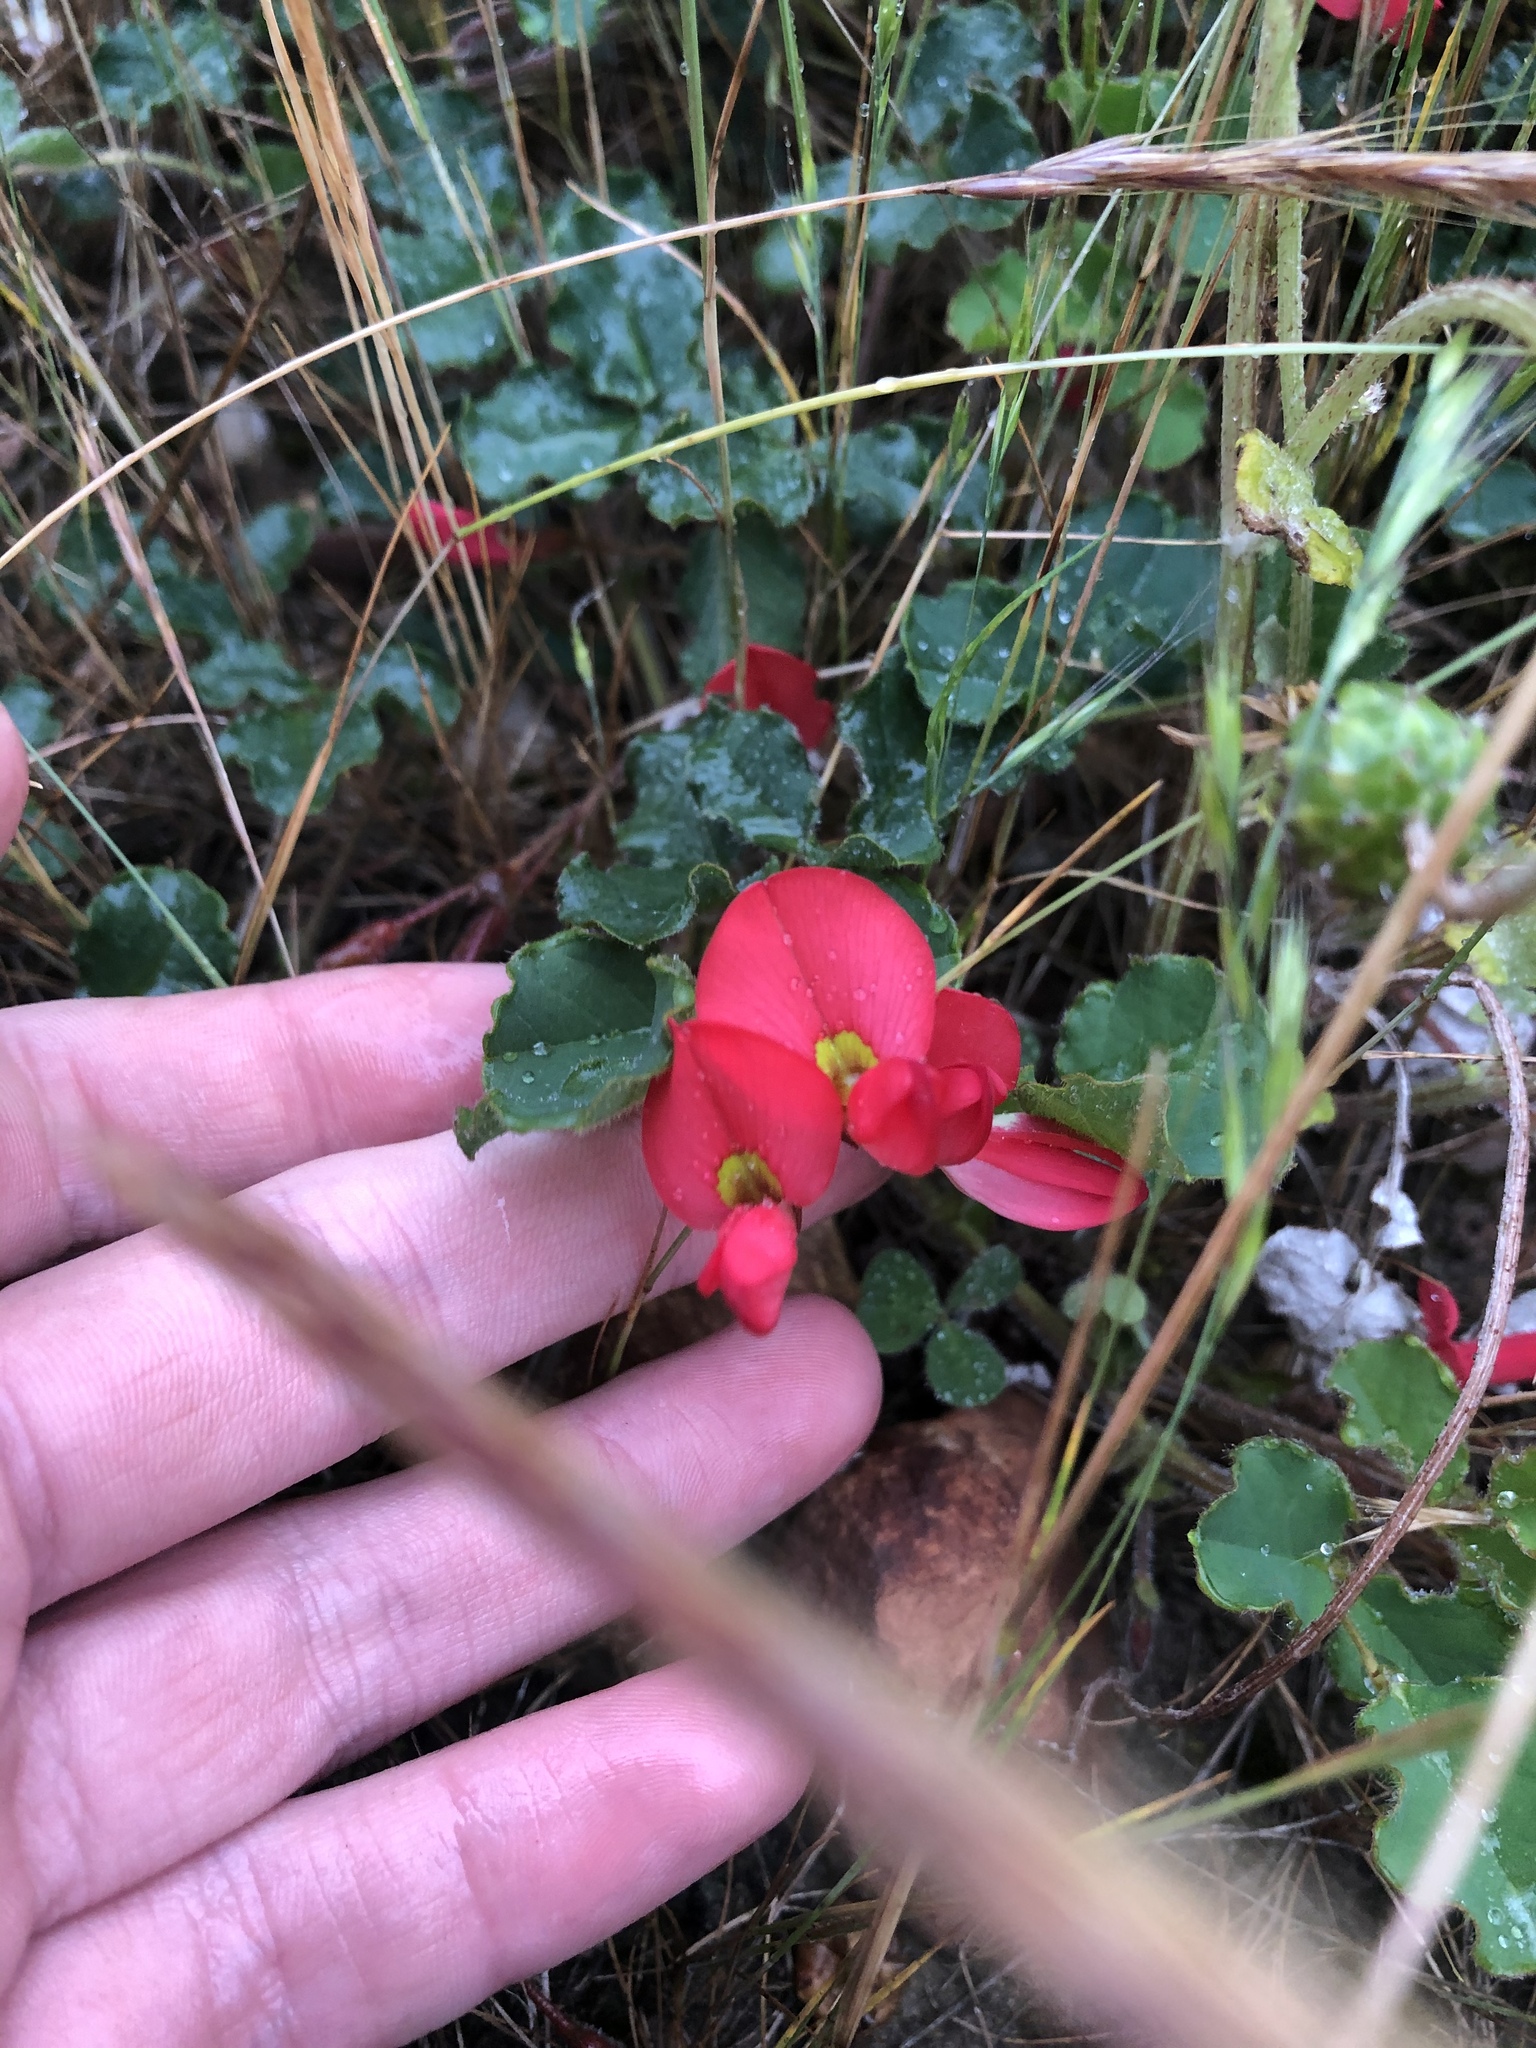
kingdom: Plantae
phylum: Tracheophyta
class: Magnoliopsida
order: Fabales
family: Fabaceae
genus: Kennedia
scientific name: Kennedia prostrata
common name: Running-postman
